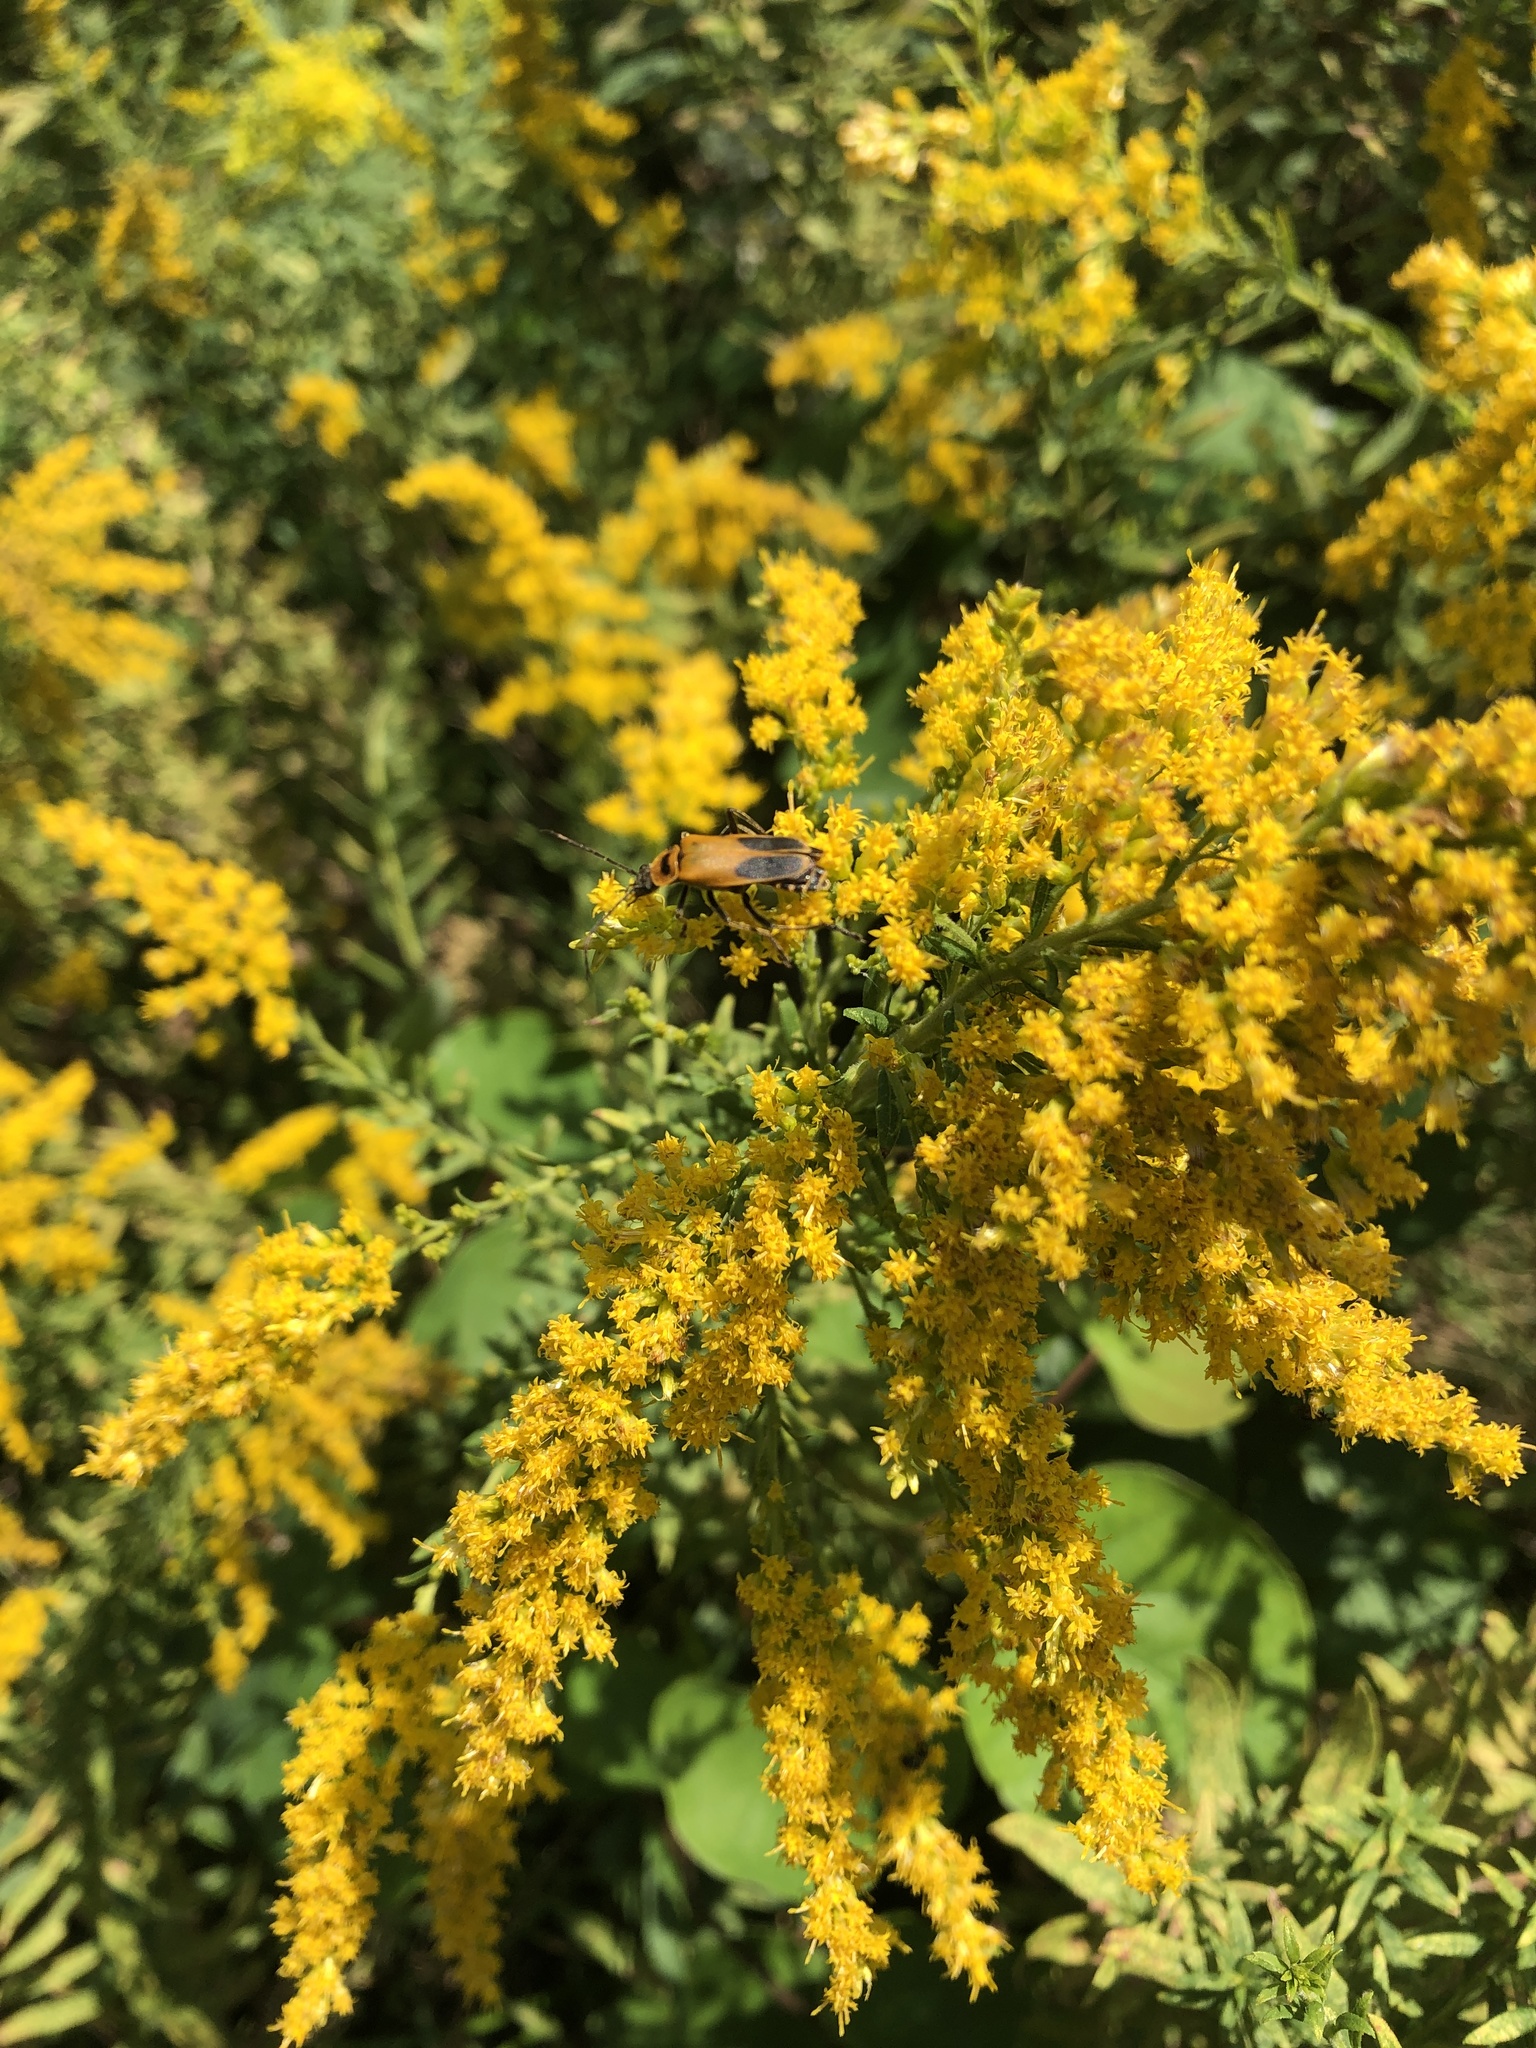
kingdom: Animalia
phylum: Arthropoda
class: Insecta
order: Coleoptera
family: Cantharidae
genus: Chauliognathus
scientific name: Chauliognathus pensylvanicus
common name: Goldenrod soldier beetle
